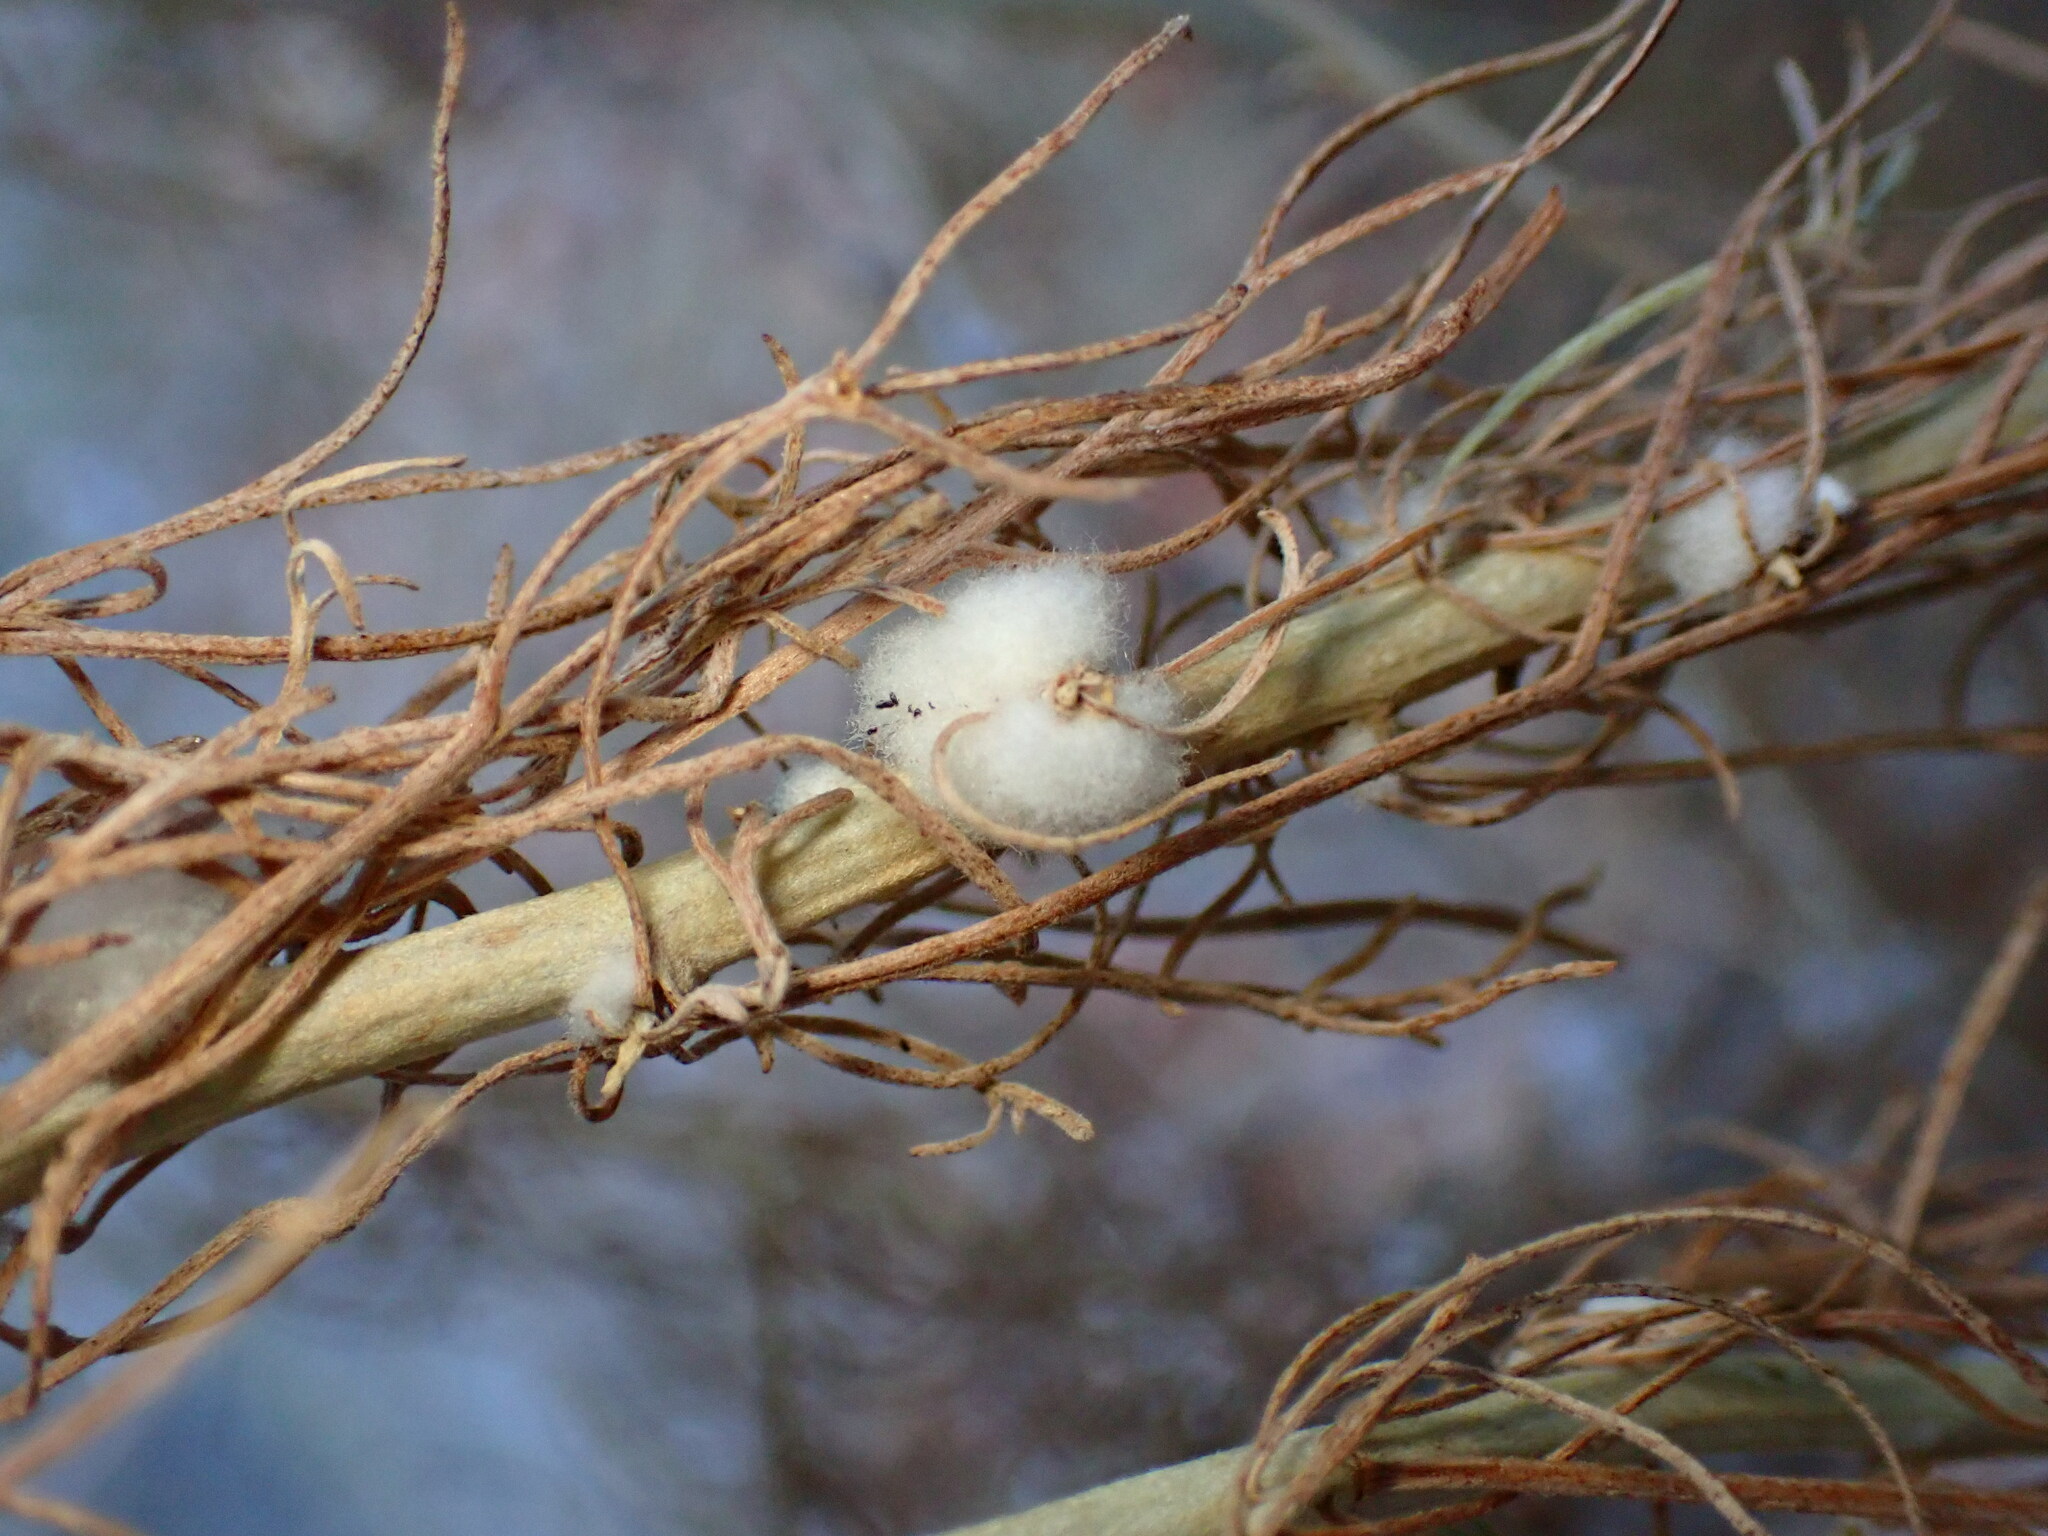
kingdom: Animalia
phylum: Arthropoda
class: Insecta
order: Diptera
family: Cecidomyiidae
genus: Rhopalomyia
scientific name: Rhopalomyia floccosa
